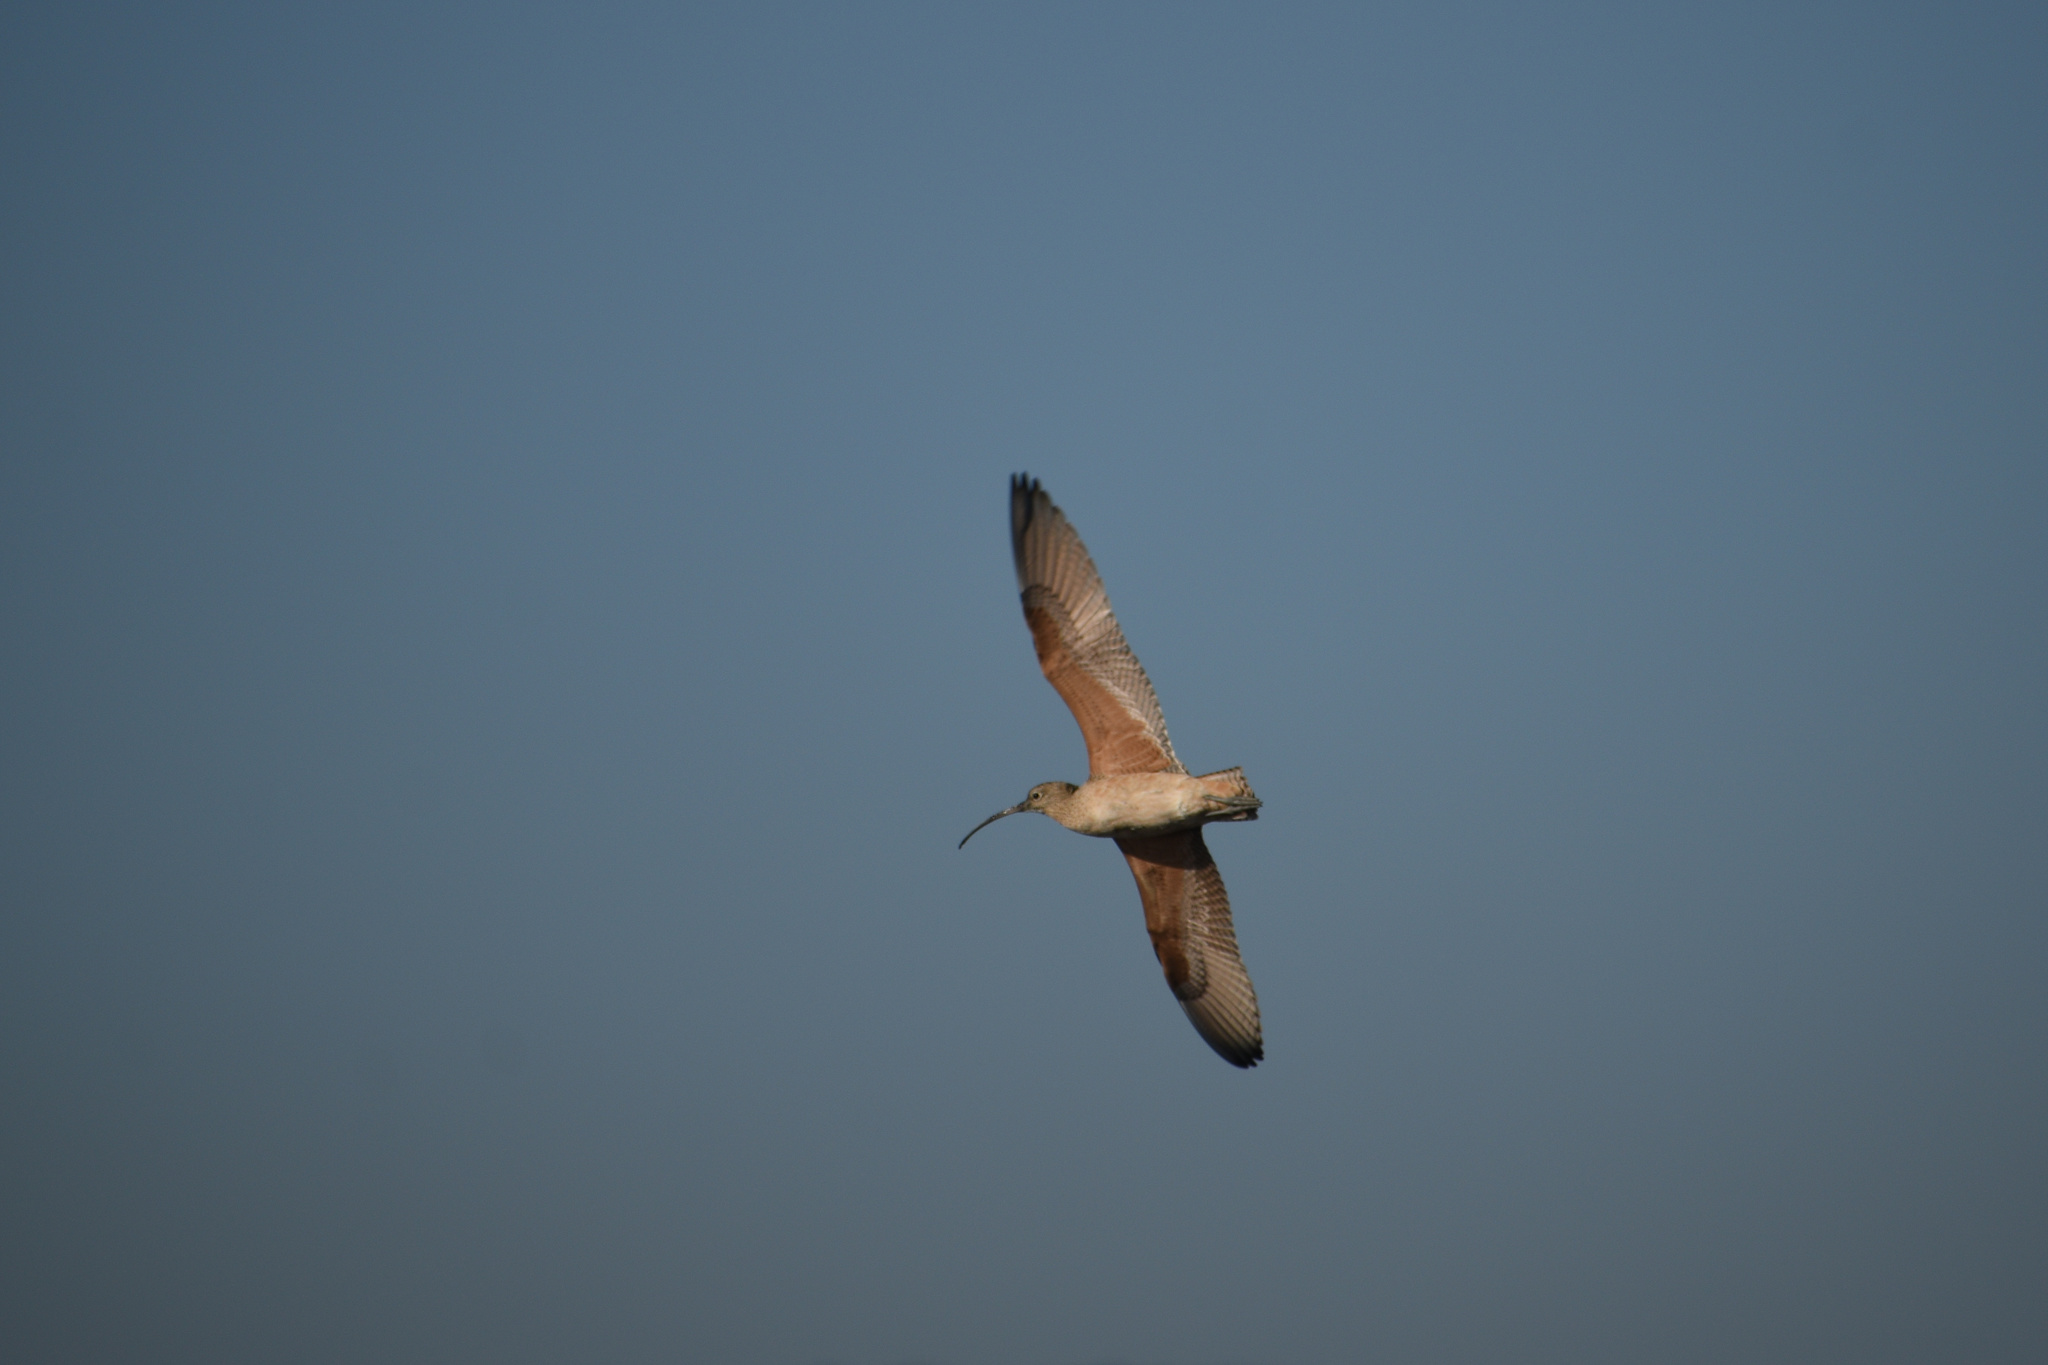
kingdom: Animalia
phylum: Chordata
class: Aves
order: Charadriiformes
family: Scolopacidae
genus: Numenius
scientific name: Numenius americanus
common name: Long-billed curlew
